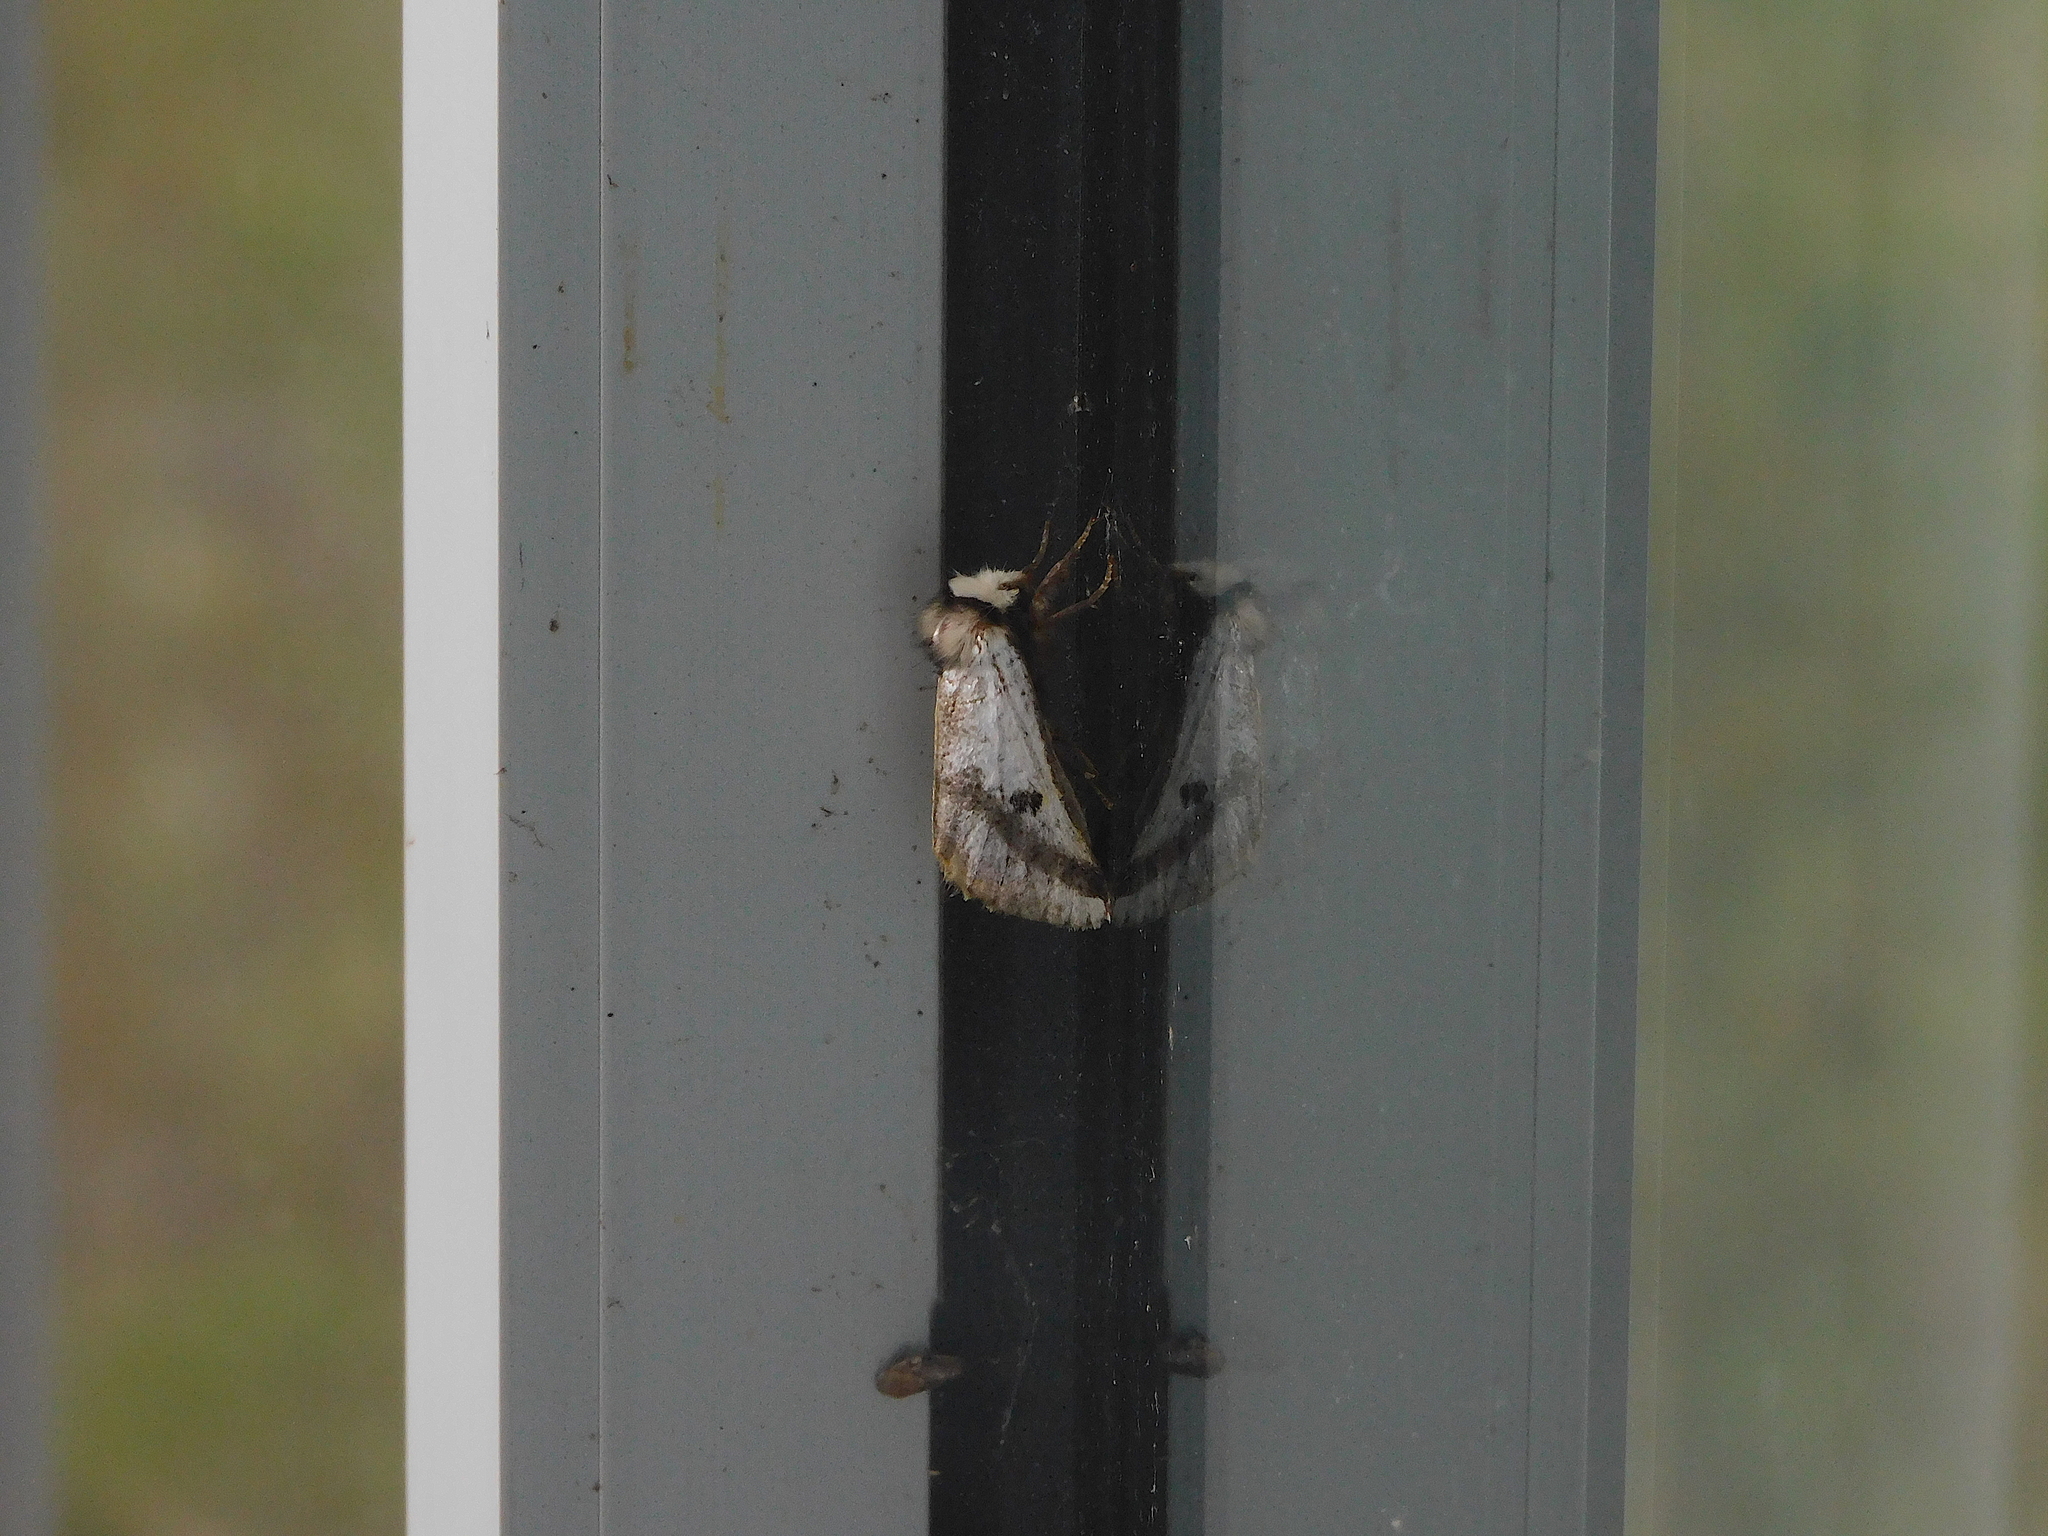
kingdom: Animalia
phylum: Arthropoda
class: Insecta
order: Lepidoptera
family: Notodontidae
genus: Epicoma
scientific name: Epicoma melanospila
